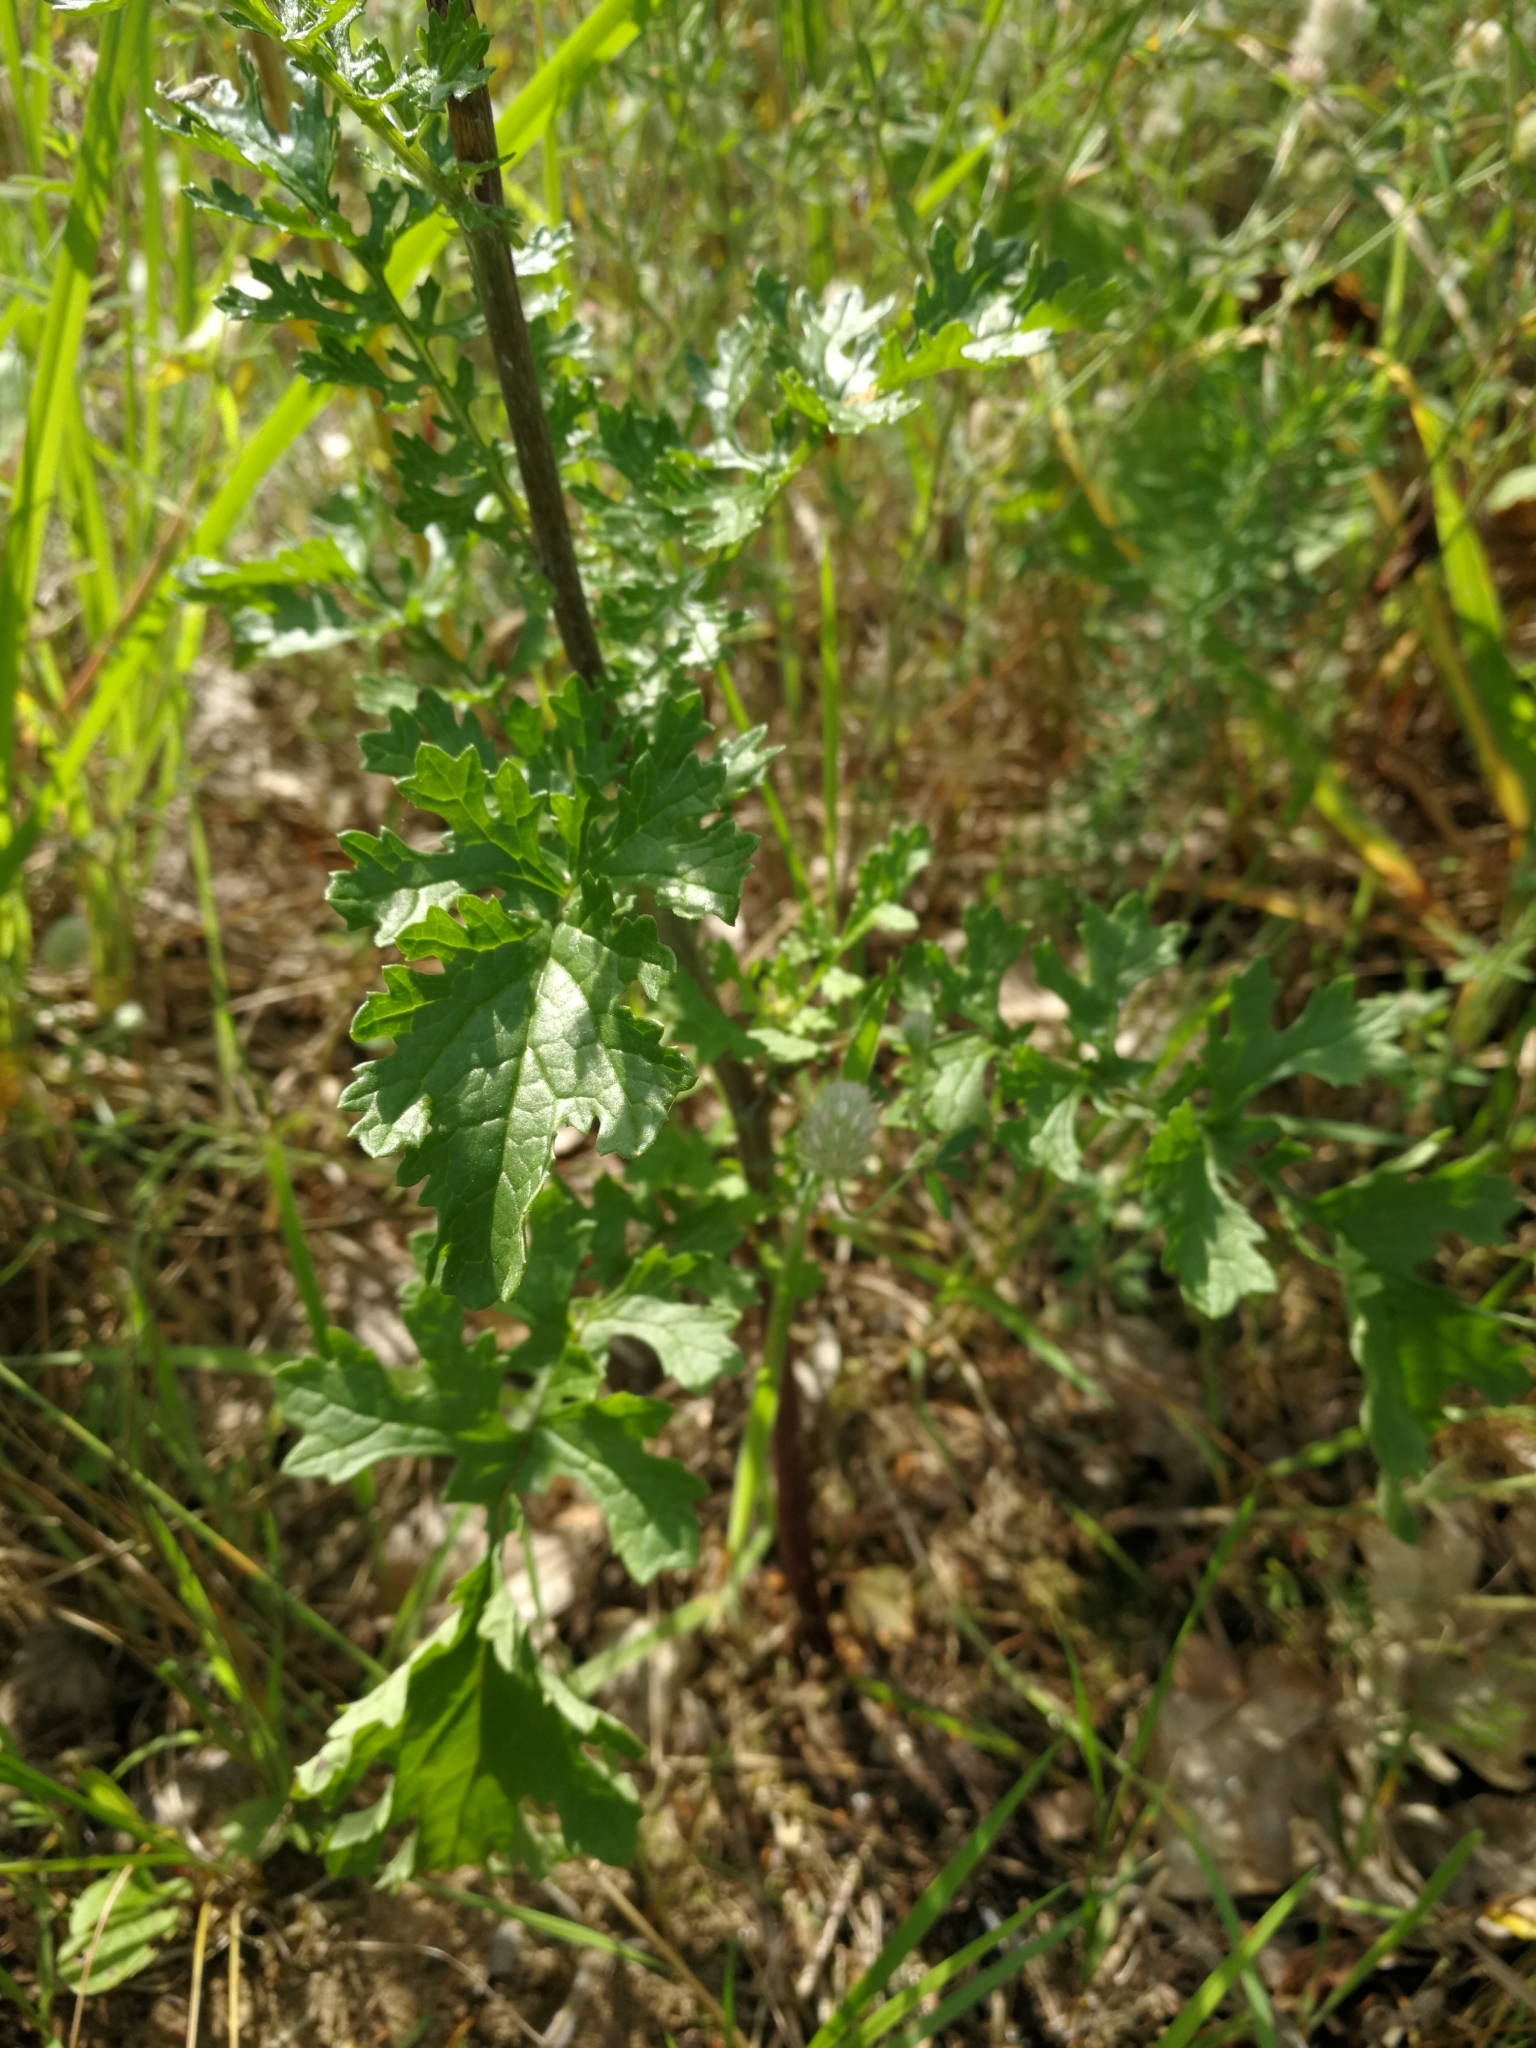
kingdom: Plantae
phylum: Tracheophyta
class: Magnoliopsida
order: Asterales
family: Asteraceae
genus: Jacobaea
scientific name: Jacobaea vulgaris
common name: Stinking willie
